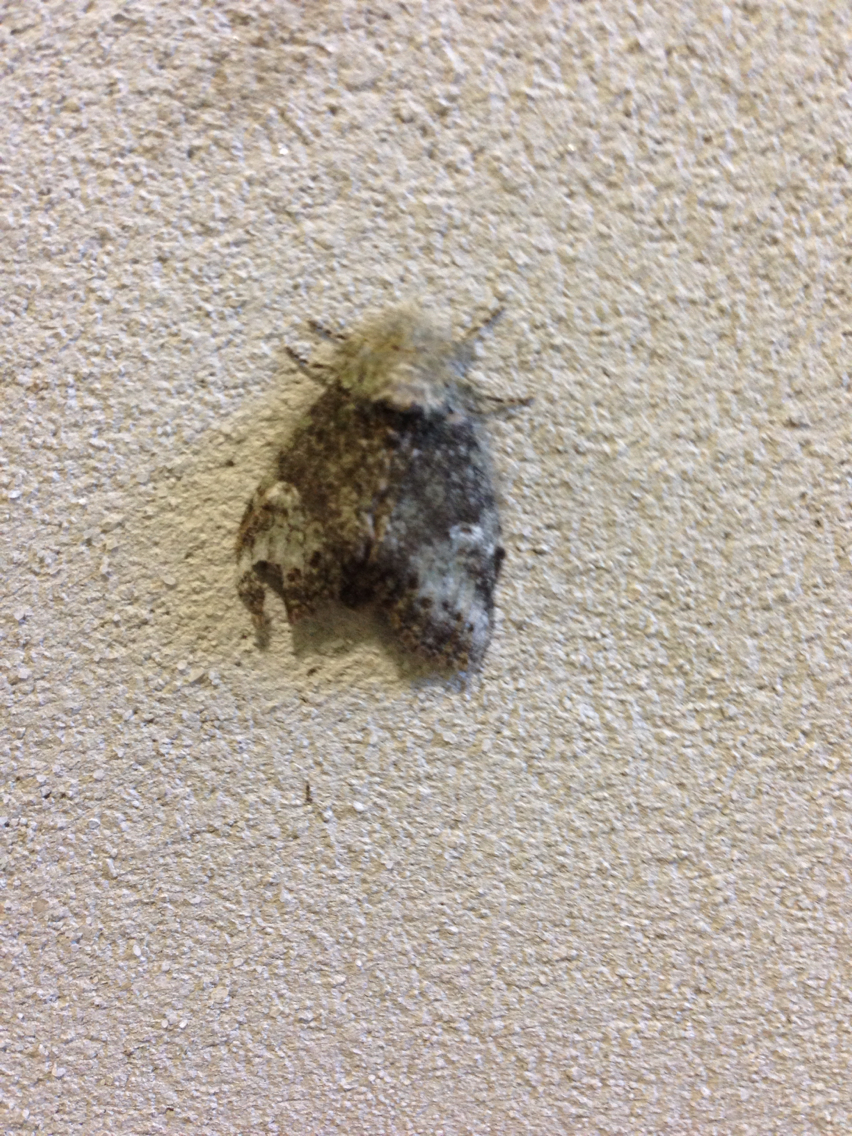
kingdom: Animalia
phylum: Arthropoda
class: Insecta
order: Lepidoptera
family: Notodontidae
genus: Disphragis
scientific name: Disphragis Cecrita guttivitta
